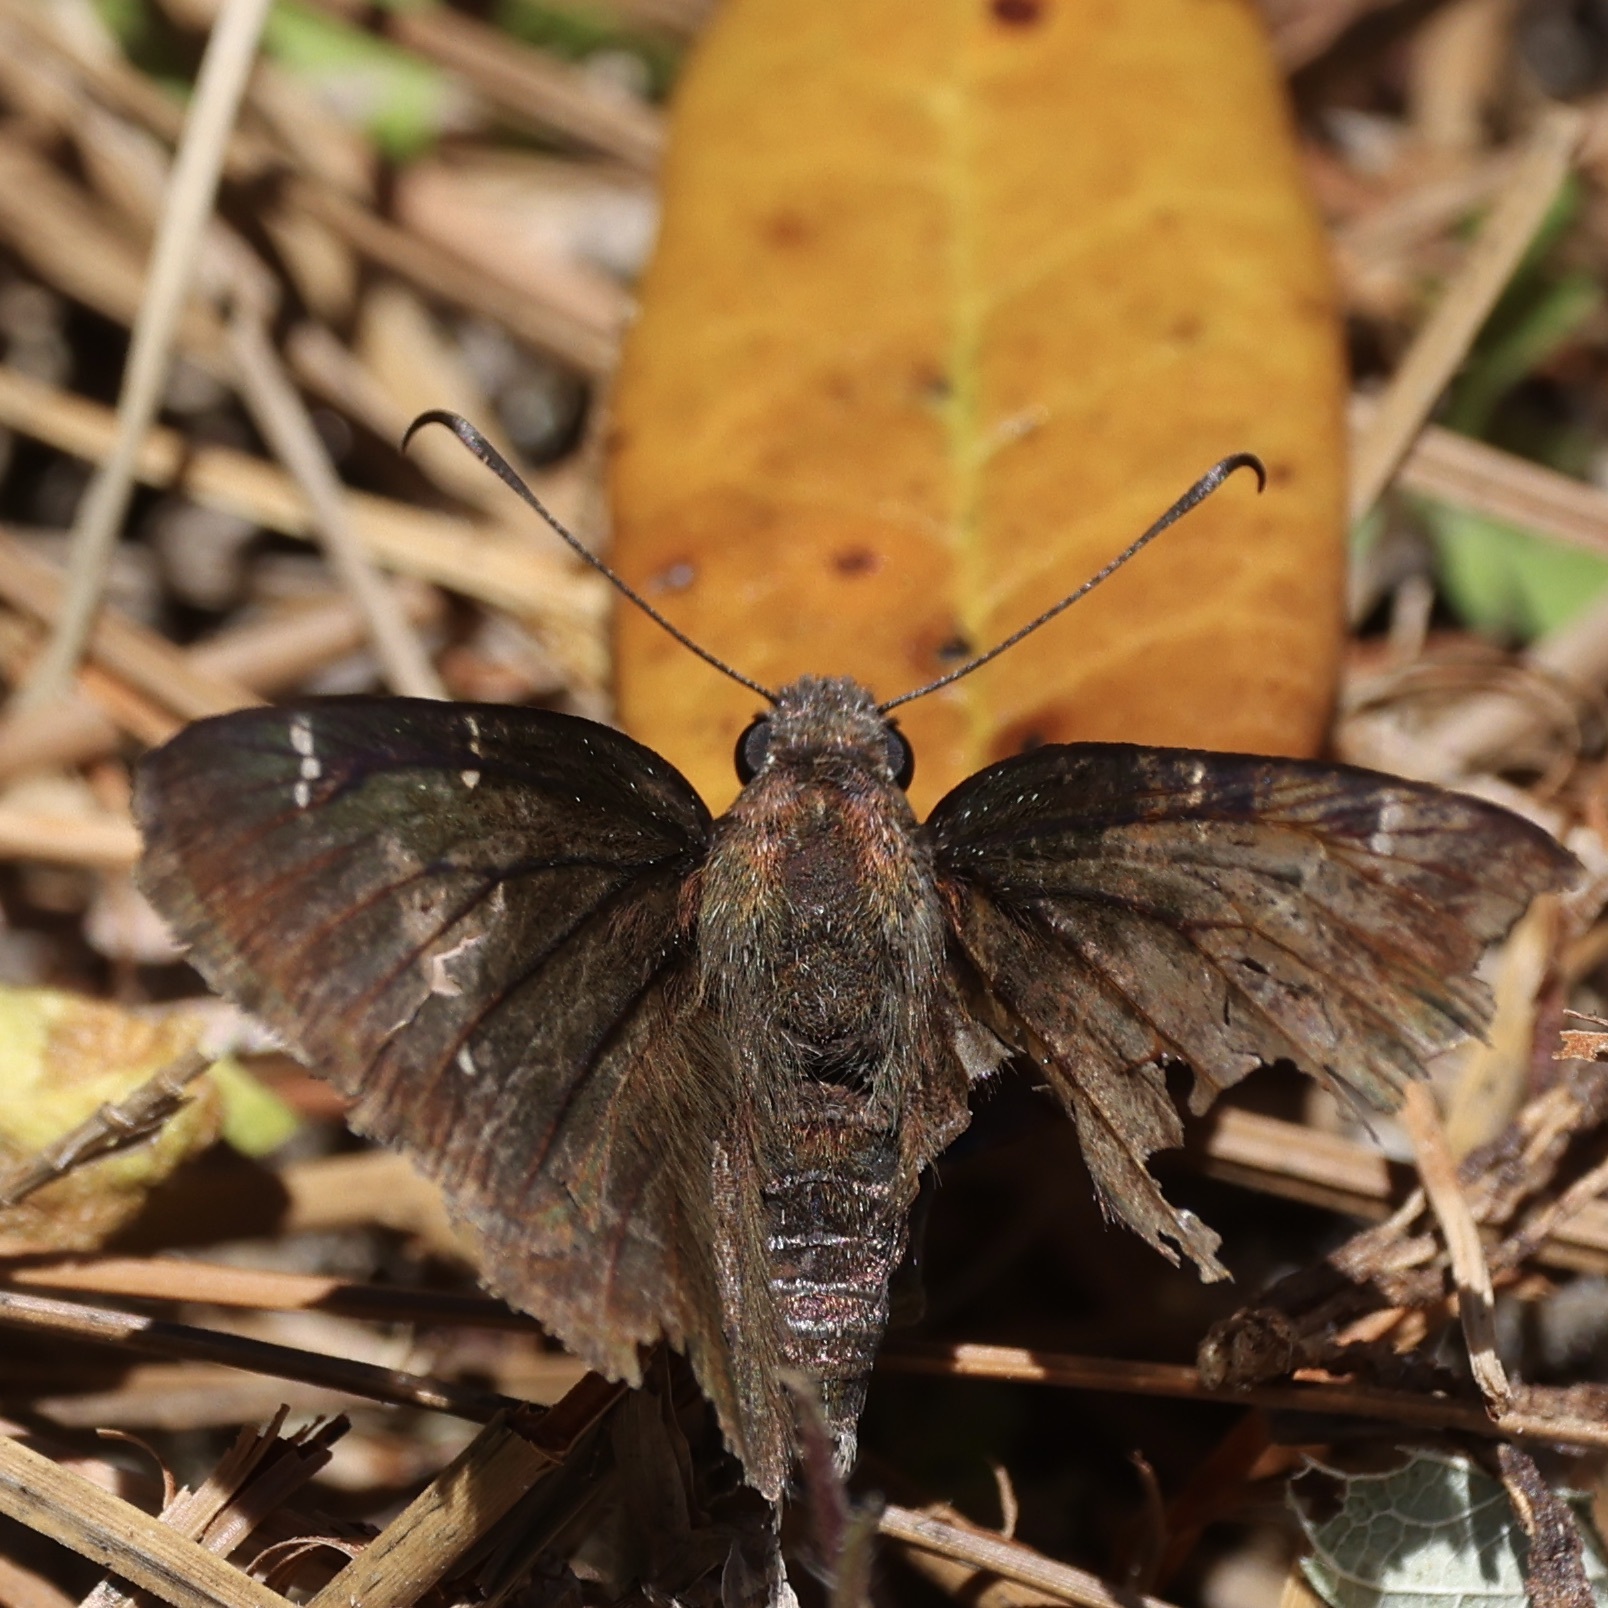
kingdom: Animalia
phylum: Arthropoda
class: Insecta
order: Lepidoptera
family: Hesperiidae
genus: Thorybes
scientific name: Thorybes pylades
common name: Northern cloudywing
